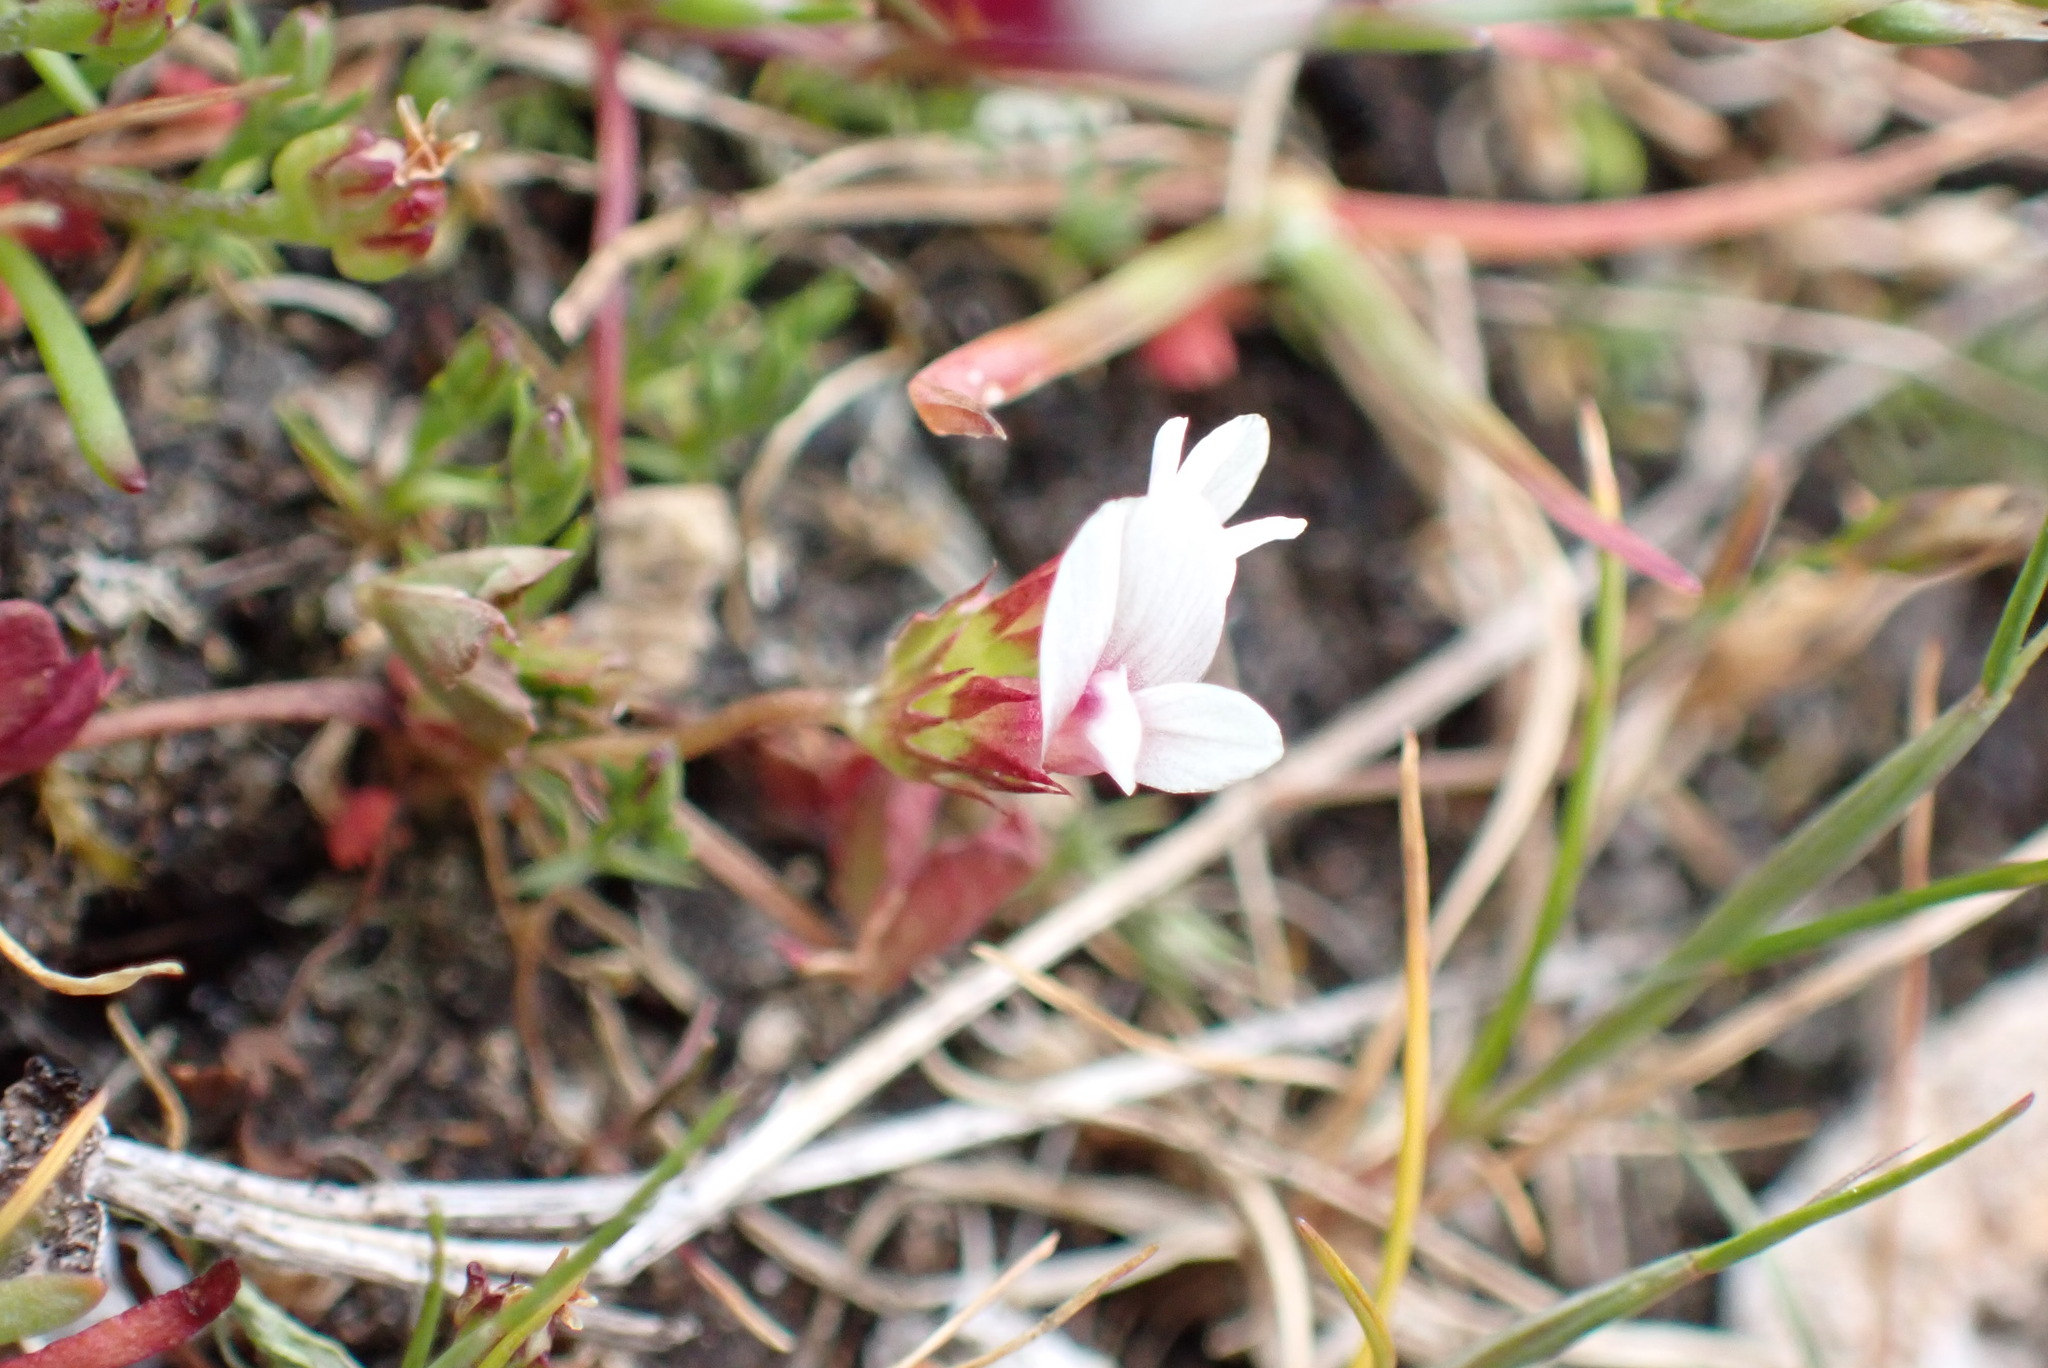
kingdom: Plantae
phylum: Tracheophyta
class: Magnoliopsida
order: Fabales
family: Fabaceae
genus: Trifolium
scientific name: Trifolium variegatum
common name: Whitetip clover
